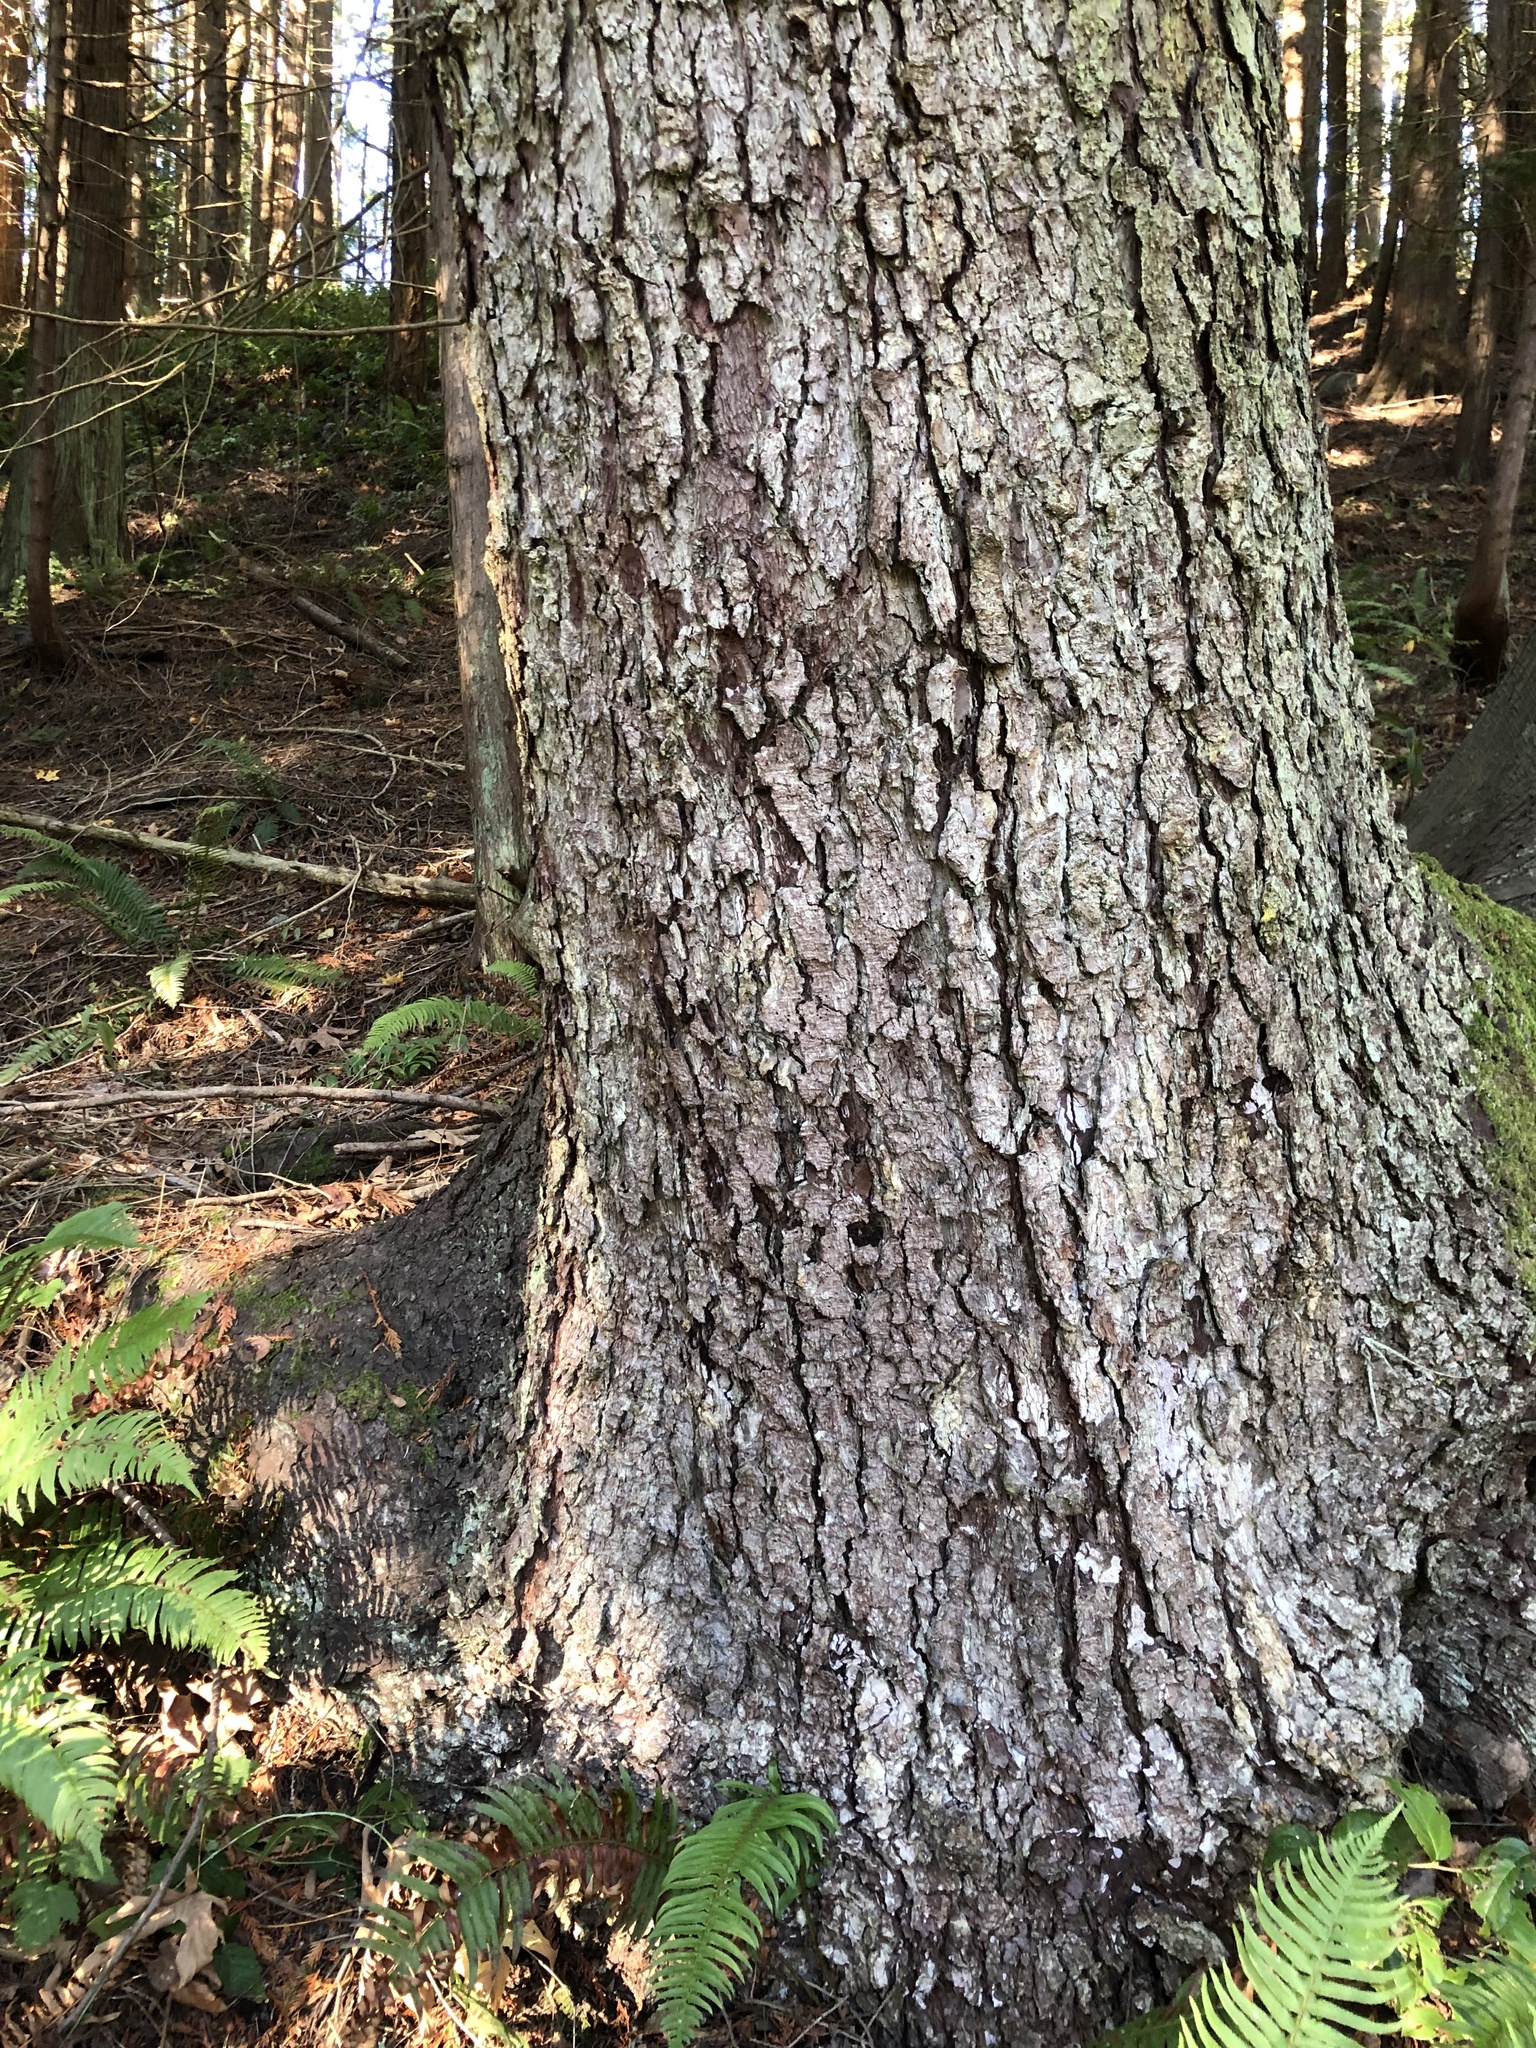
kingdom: Plantae
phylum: Tracheophyta
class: Pinopsida
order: Pinales
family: Pinaceae
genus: Picea
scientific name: Picea sitchensis
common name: Sitka spruce
